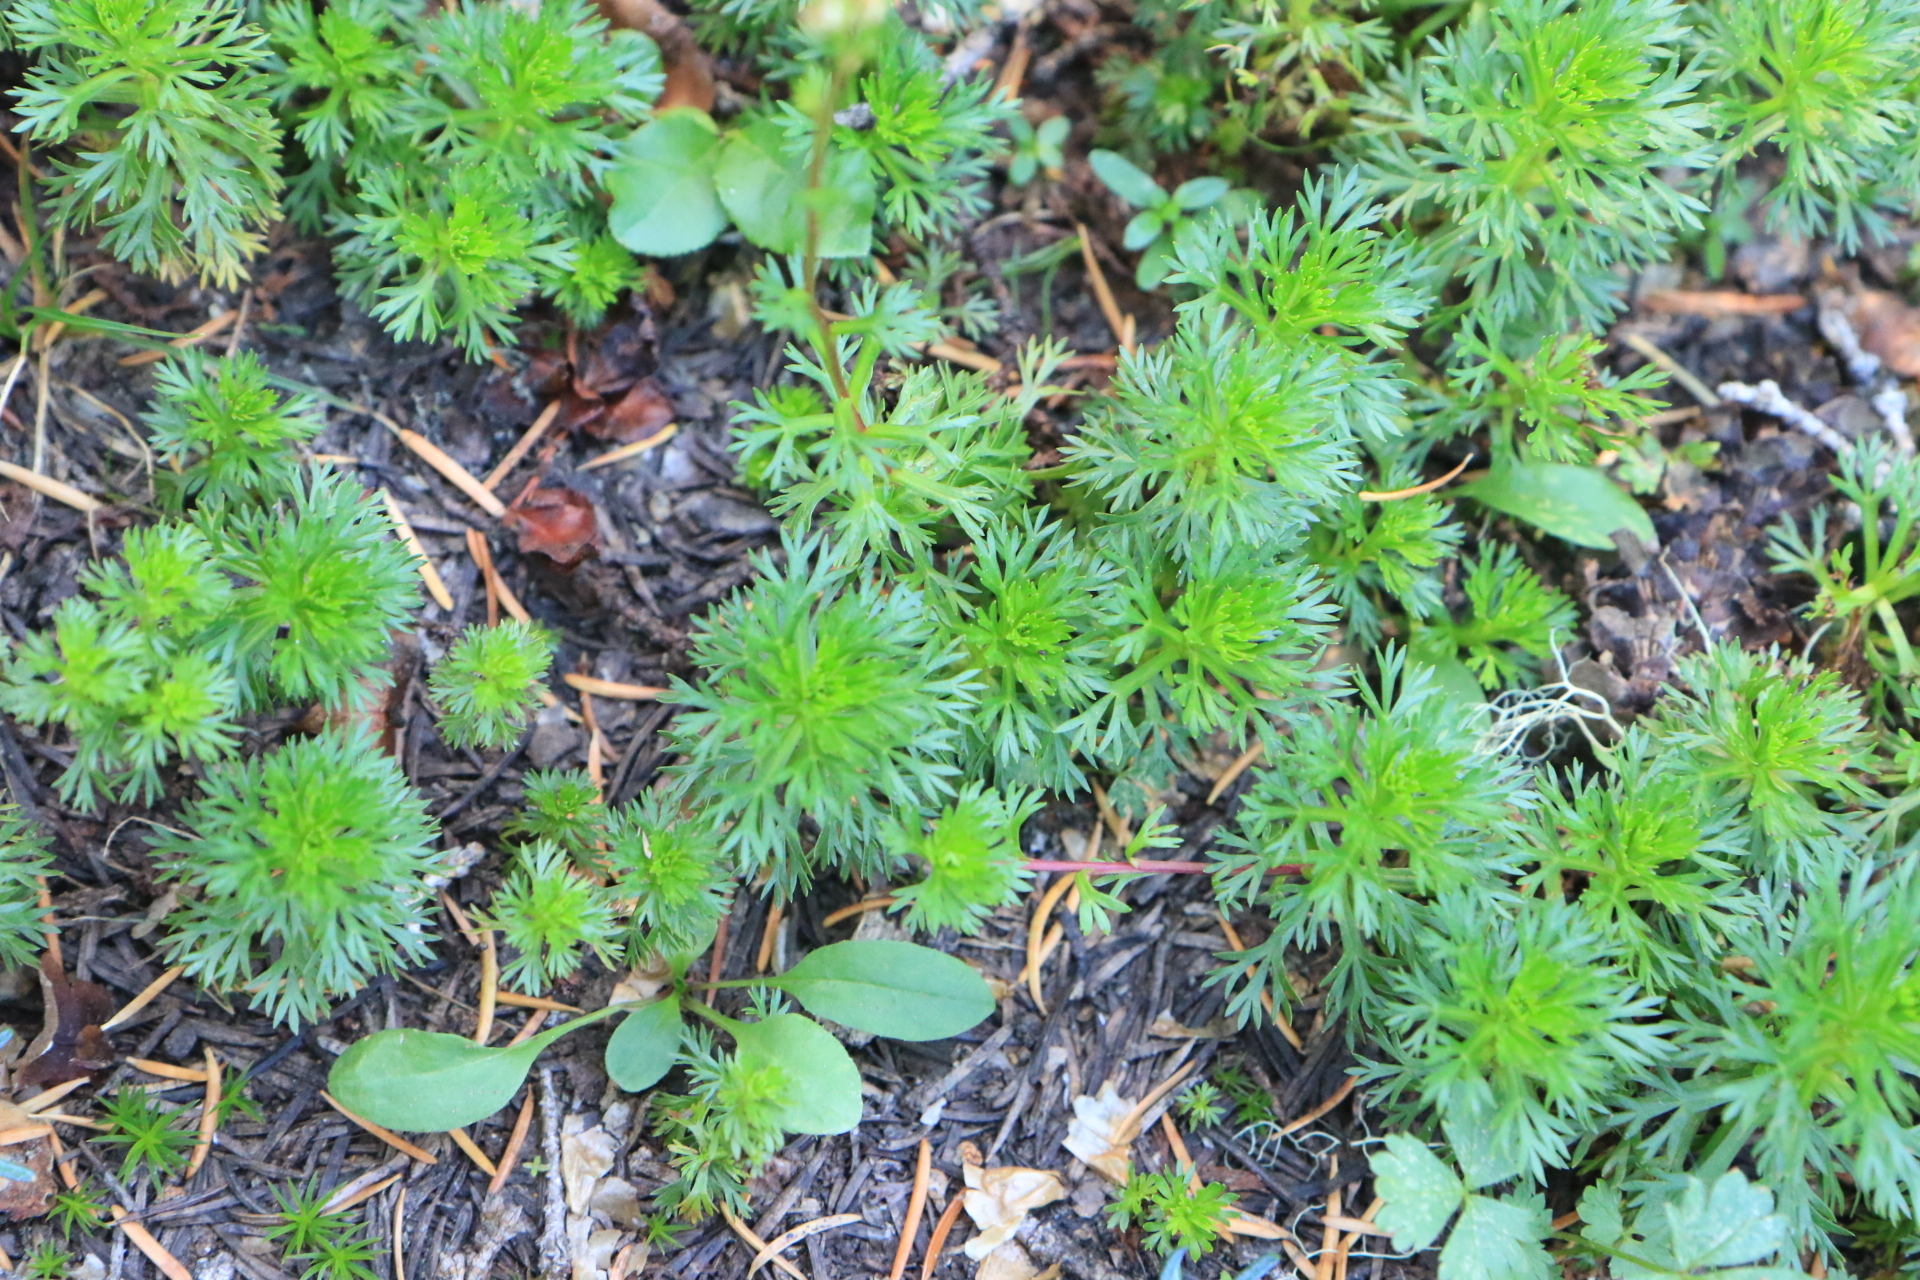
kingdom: Plantae
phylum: Tracheophyta
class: Magnoliopsida
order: Rosales
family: Rosaceae
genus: Luetkea
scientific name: Luetkea pectinata
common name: Partridgefoot
